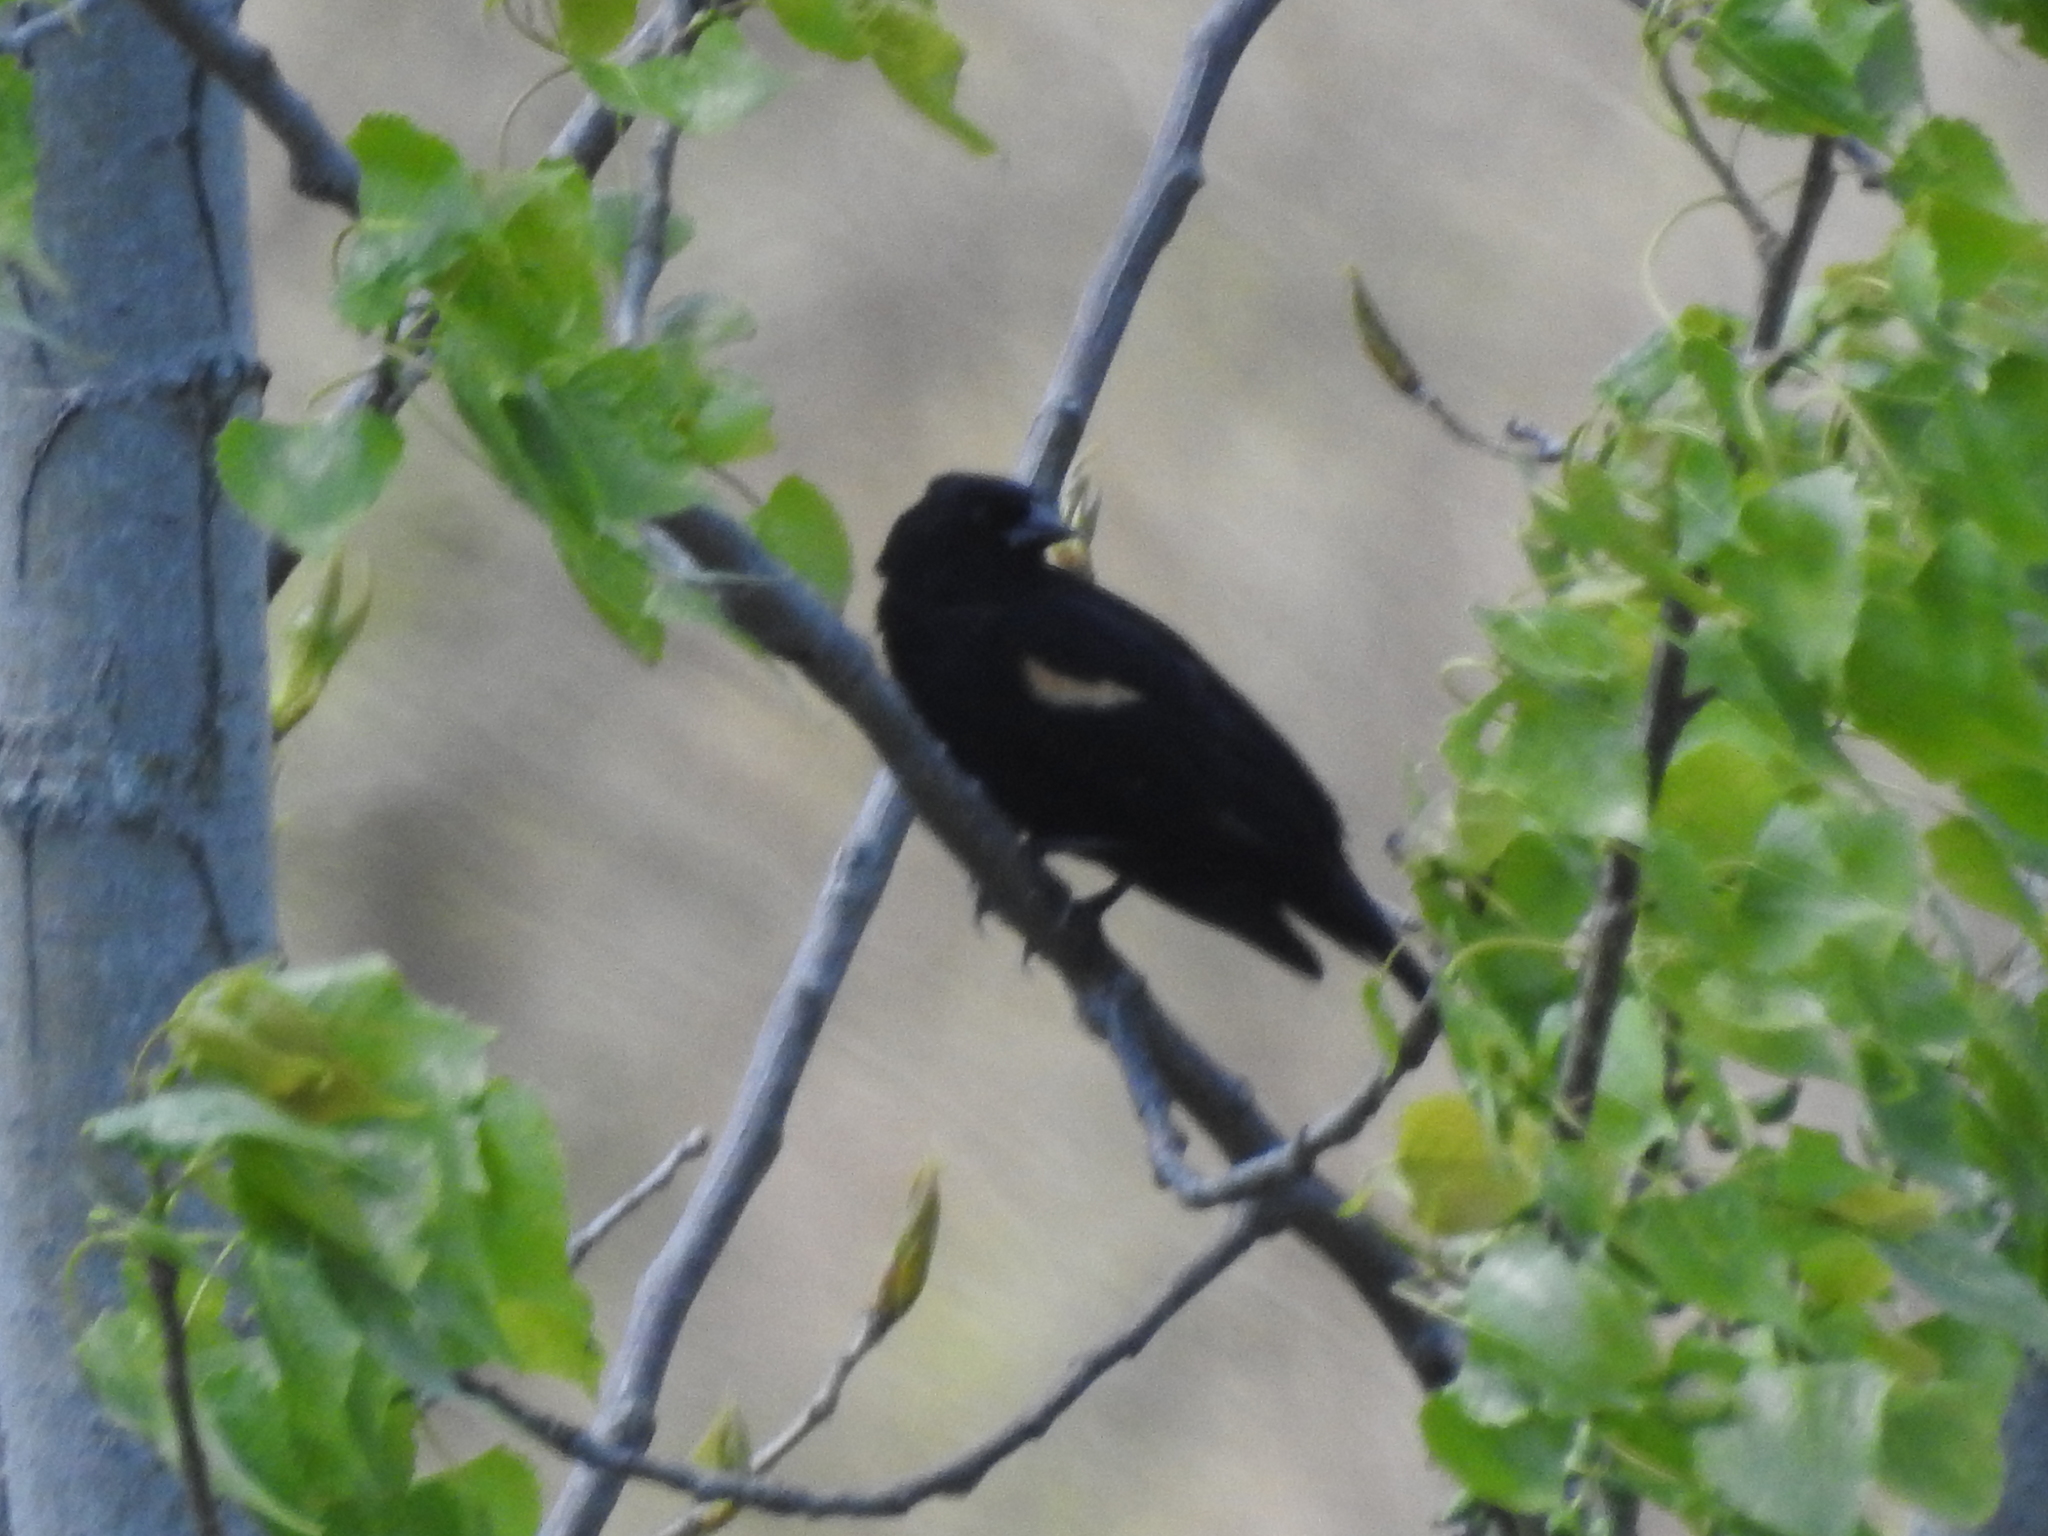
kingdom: Animalia
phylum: Chordata
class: Aves
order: Passeriformes
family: Icteridae
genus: Agelaius
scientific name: Agelaius phoeniceus
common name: Red-winged blackbird
